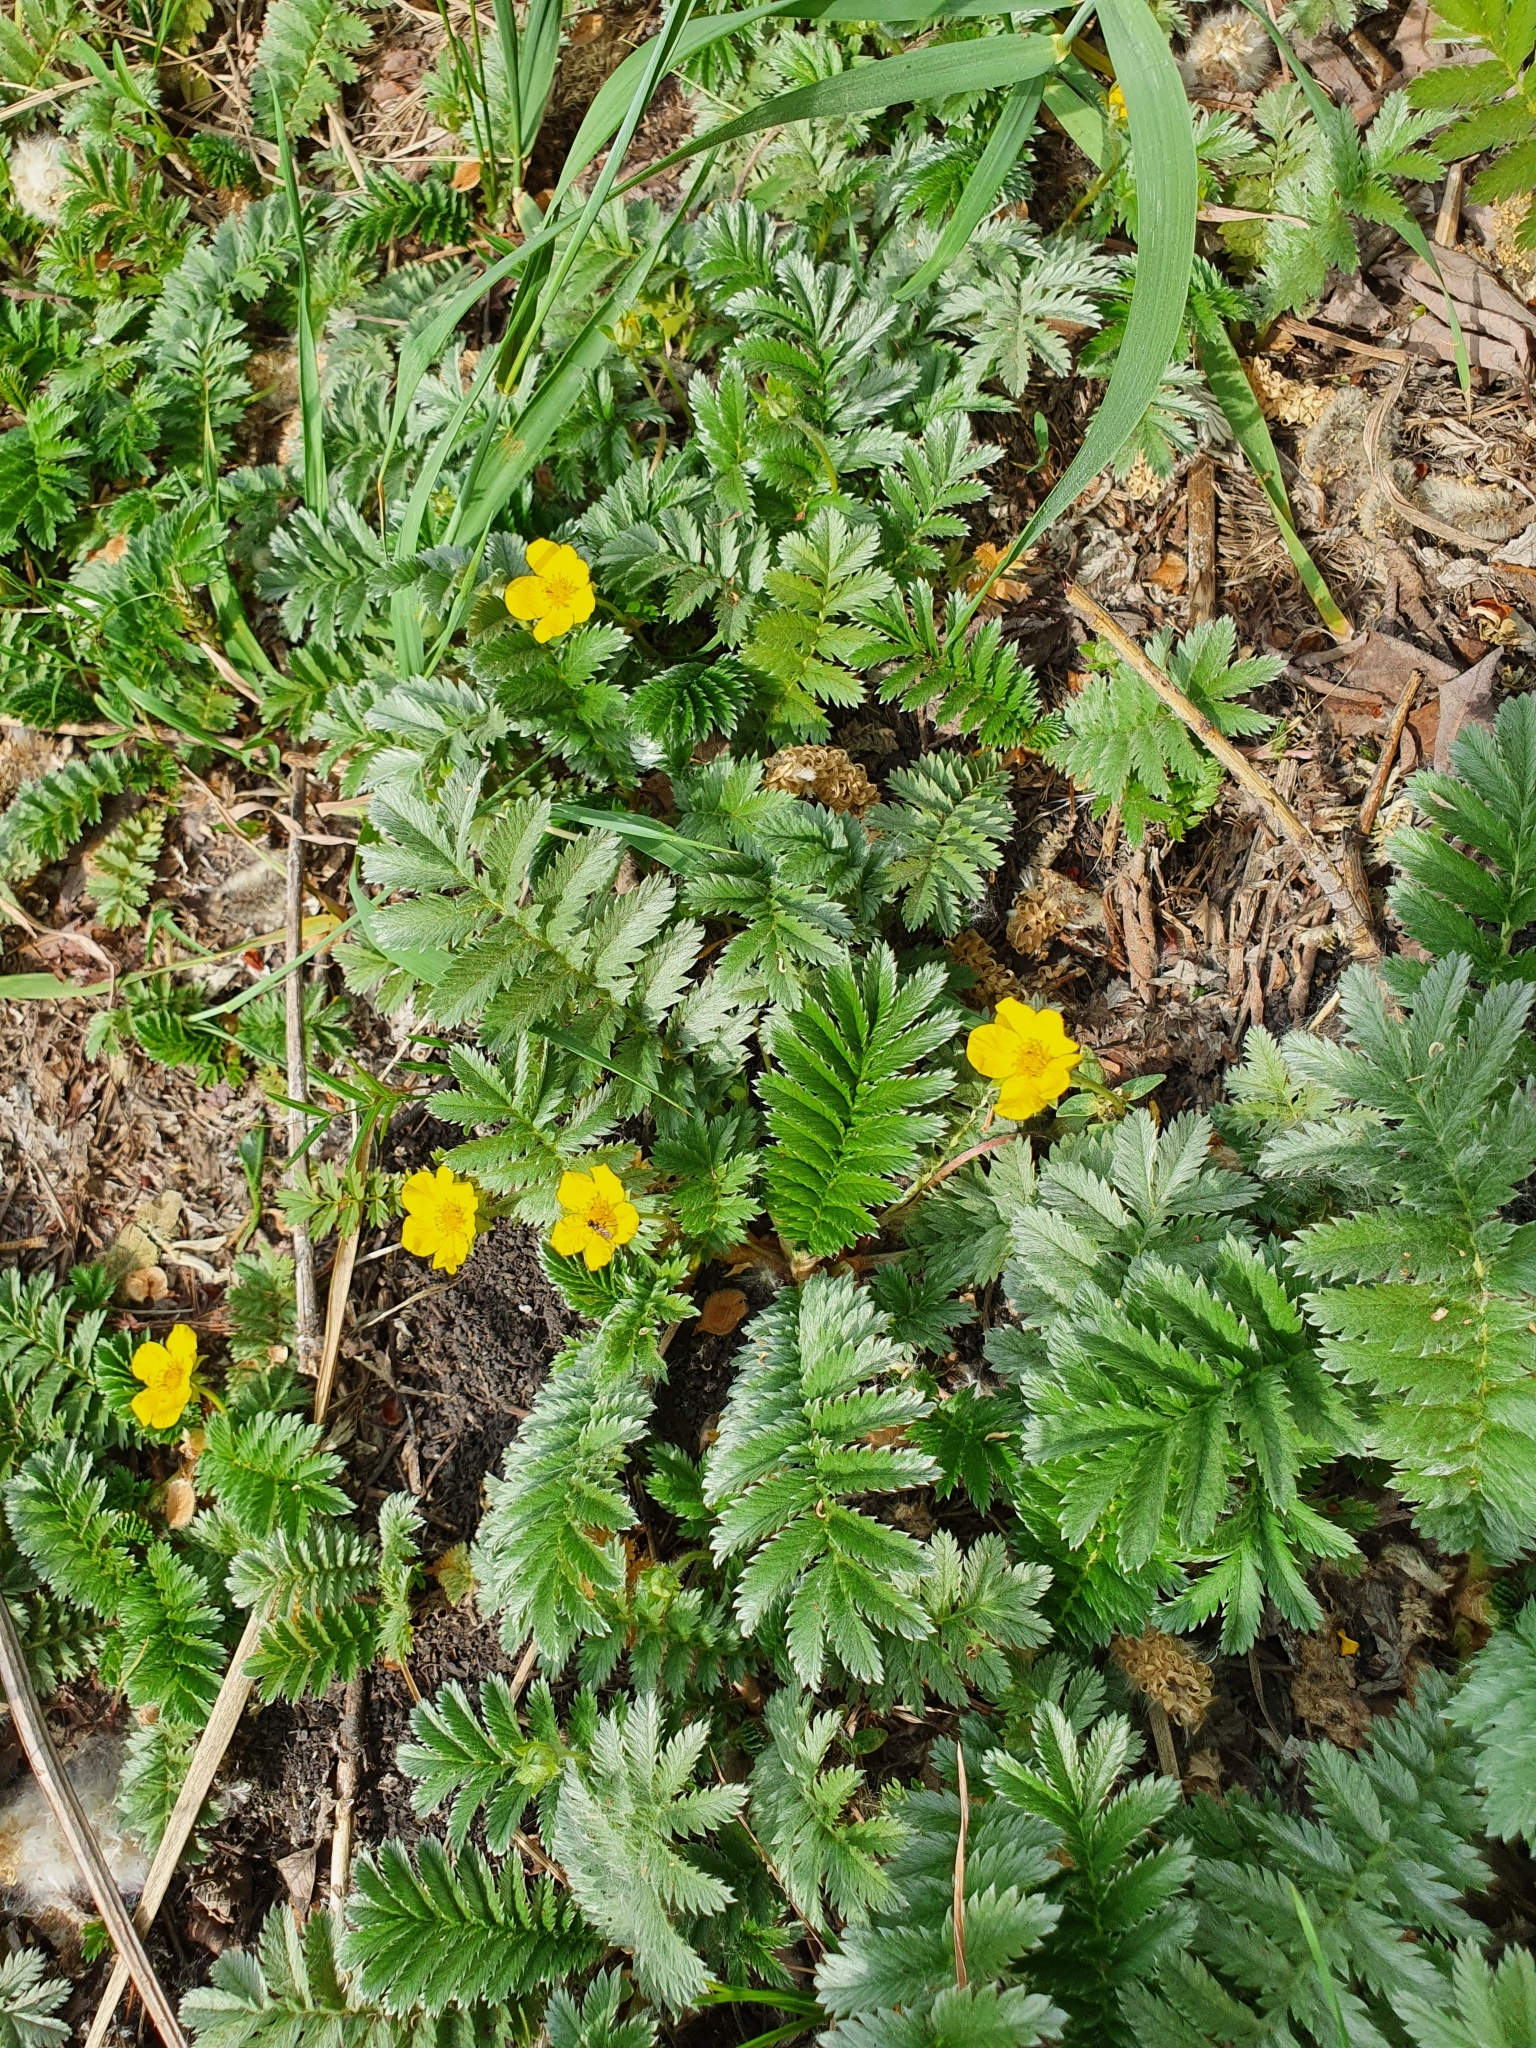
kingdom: Plantae
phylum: Tracheophyta
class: Magnoliopsida
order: Rosales
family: Rosaceae
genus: Argentina
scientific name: Argentina anserina
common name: Common silverweed
